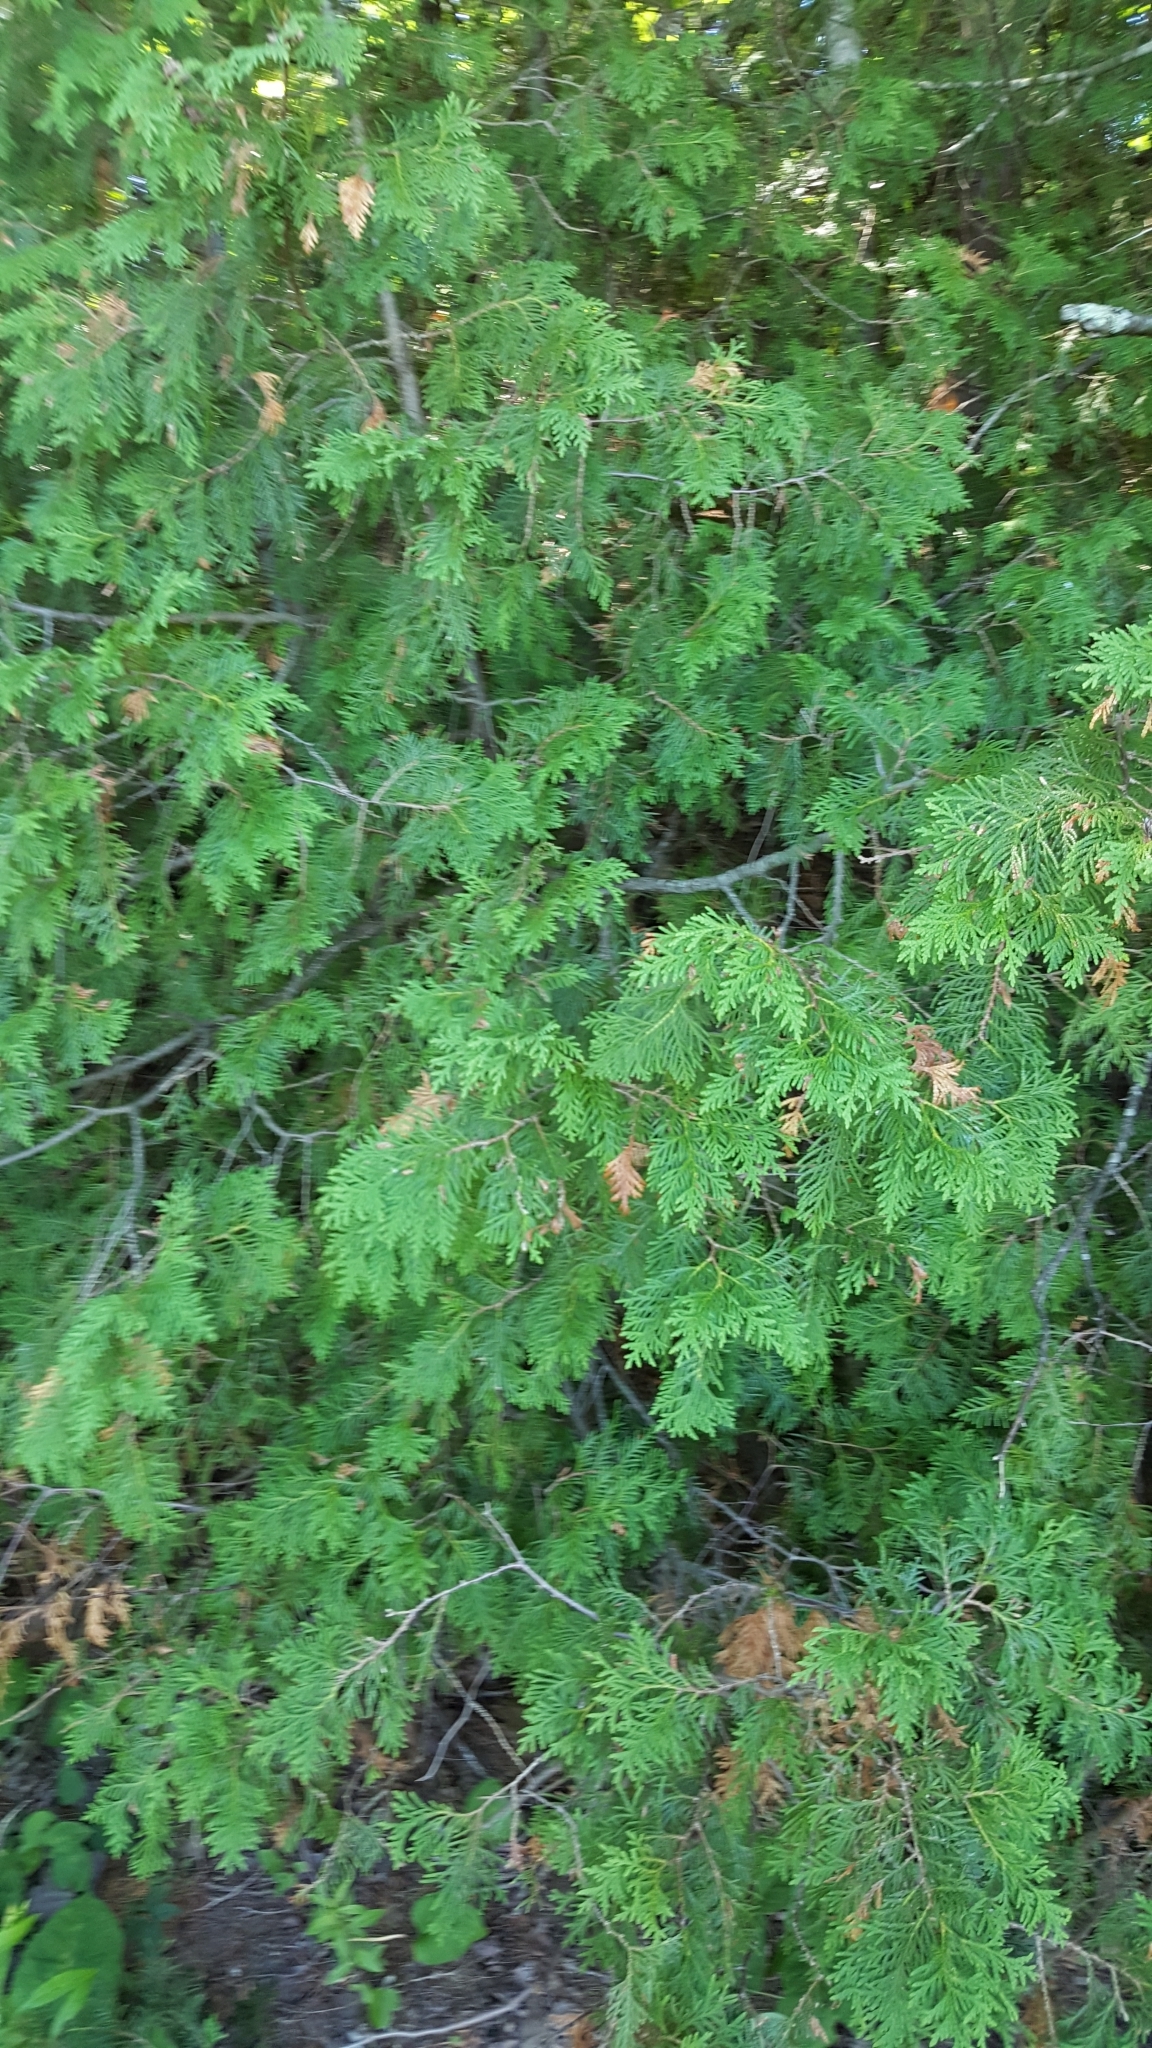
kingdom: Plantae
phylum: Tracheophyta
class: Pinopsida
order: Pinales
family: Cupressaceae
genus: Thuja
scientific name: Thuja occidentalis
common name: Northern white-cedar
